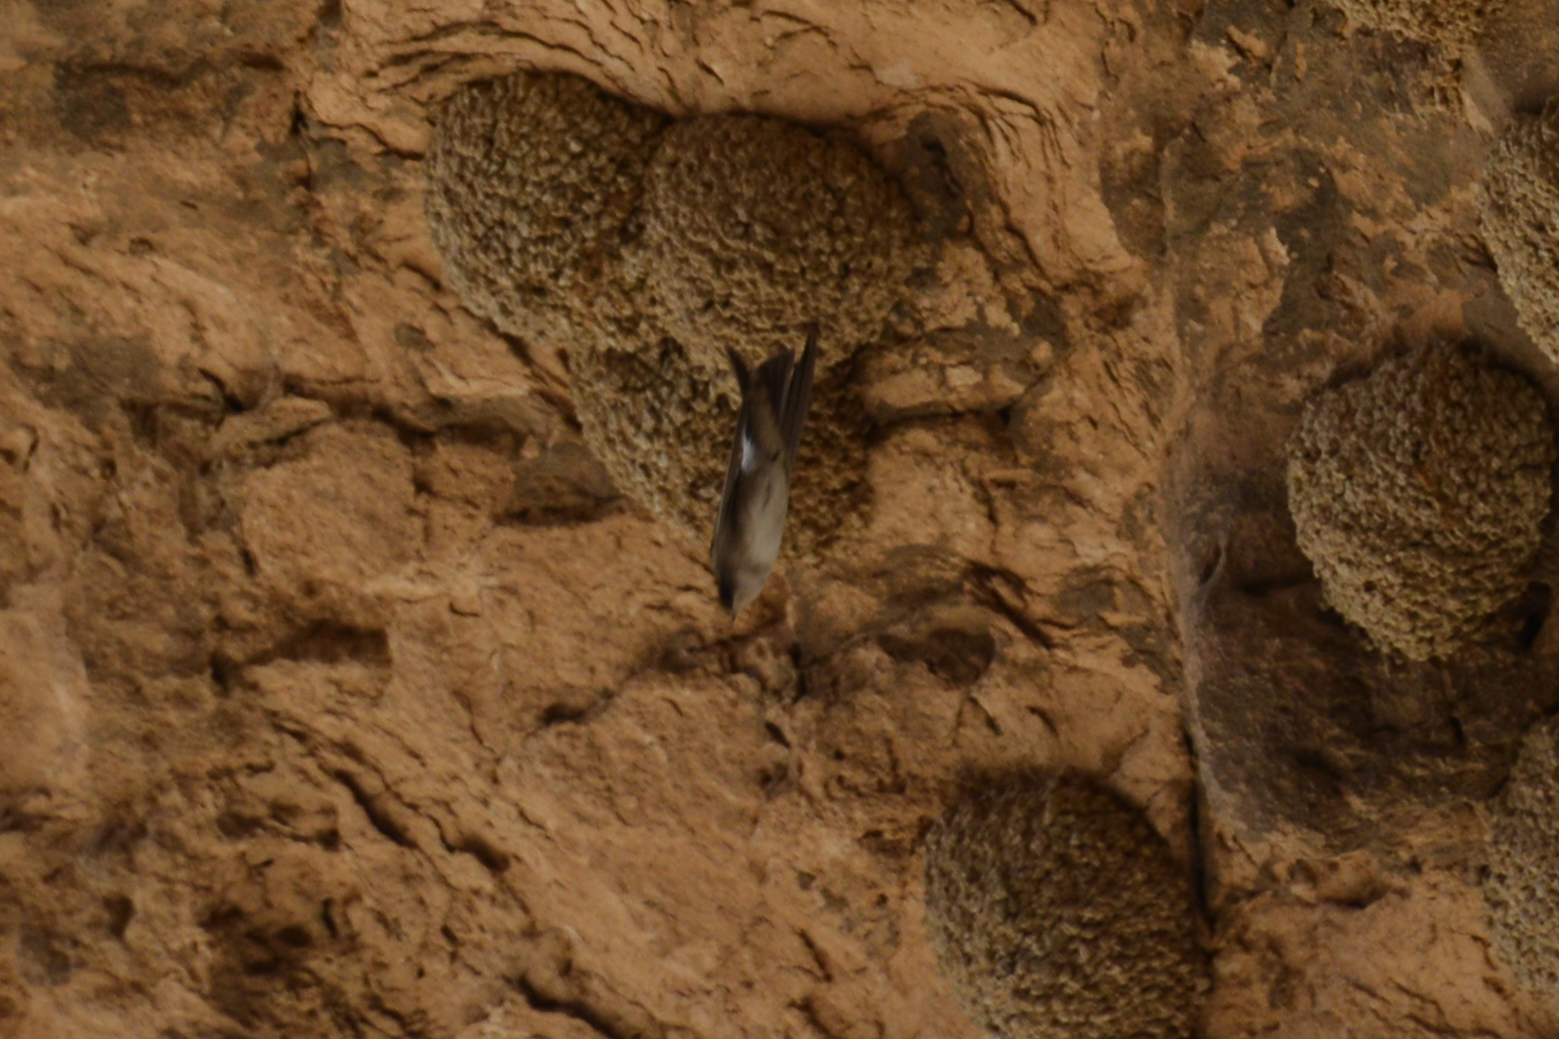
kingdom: Animalia
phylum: Chordata
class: Aves
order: Passeriformes
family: Hirundinidae
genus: Delichon
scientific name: Delichon urbicum
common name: Common house martin
